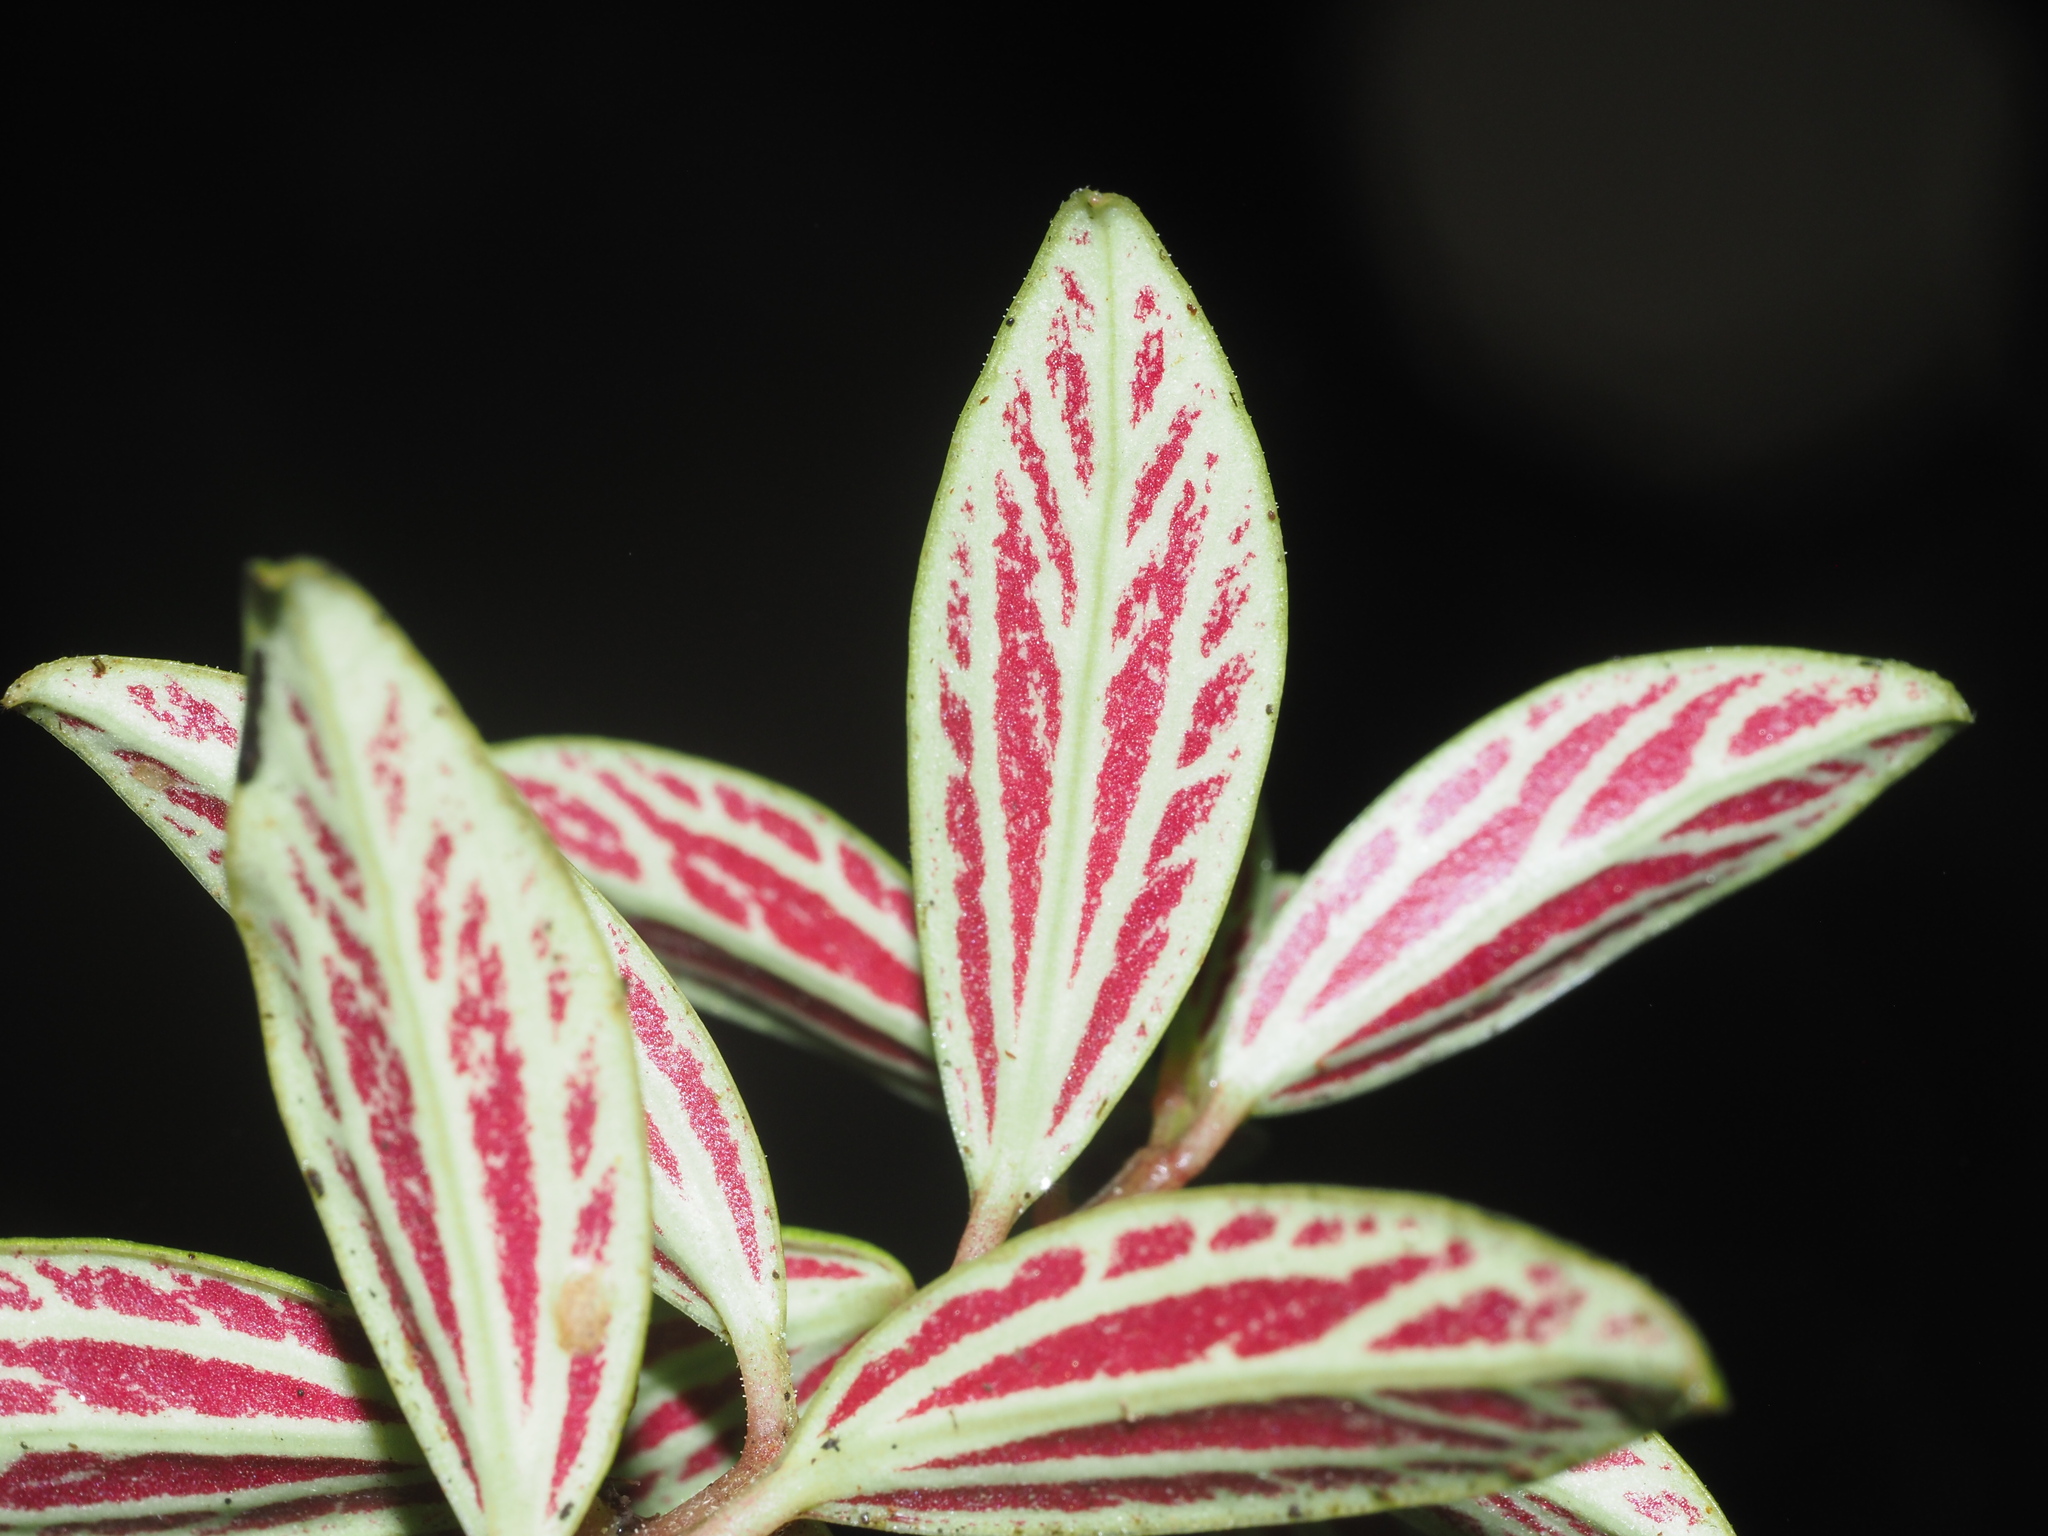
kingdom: Plantae
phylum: Tracheophyta
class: Magnoliopsida
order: Piperales
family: Piperaceae
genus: Peperomia
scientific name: Peperomia hesperomannii
